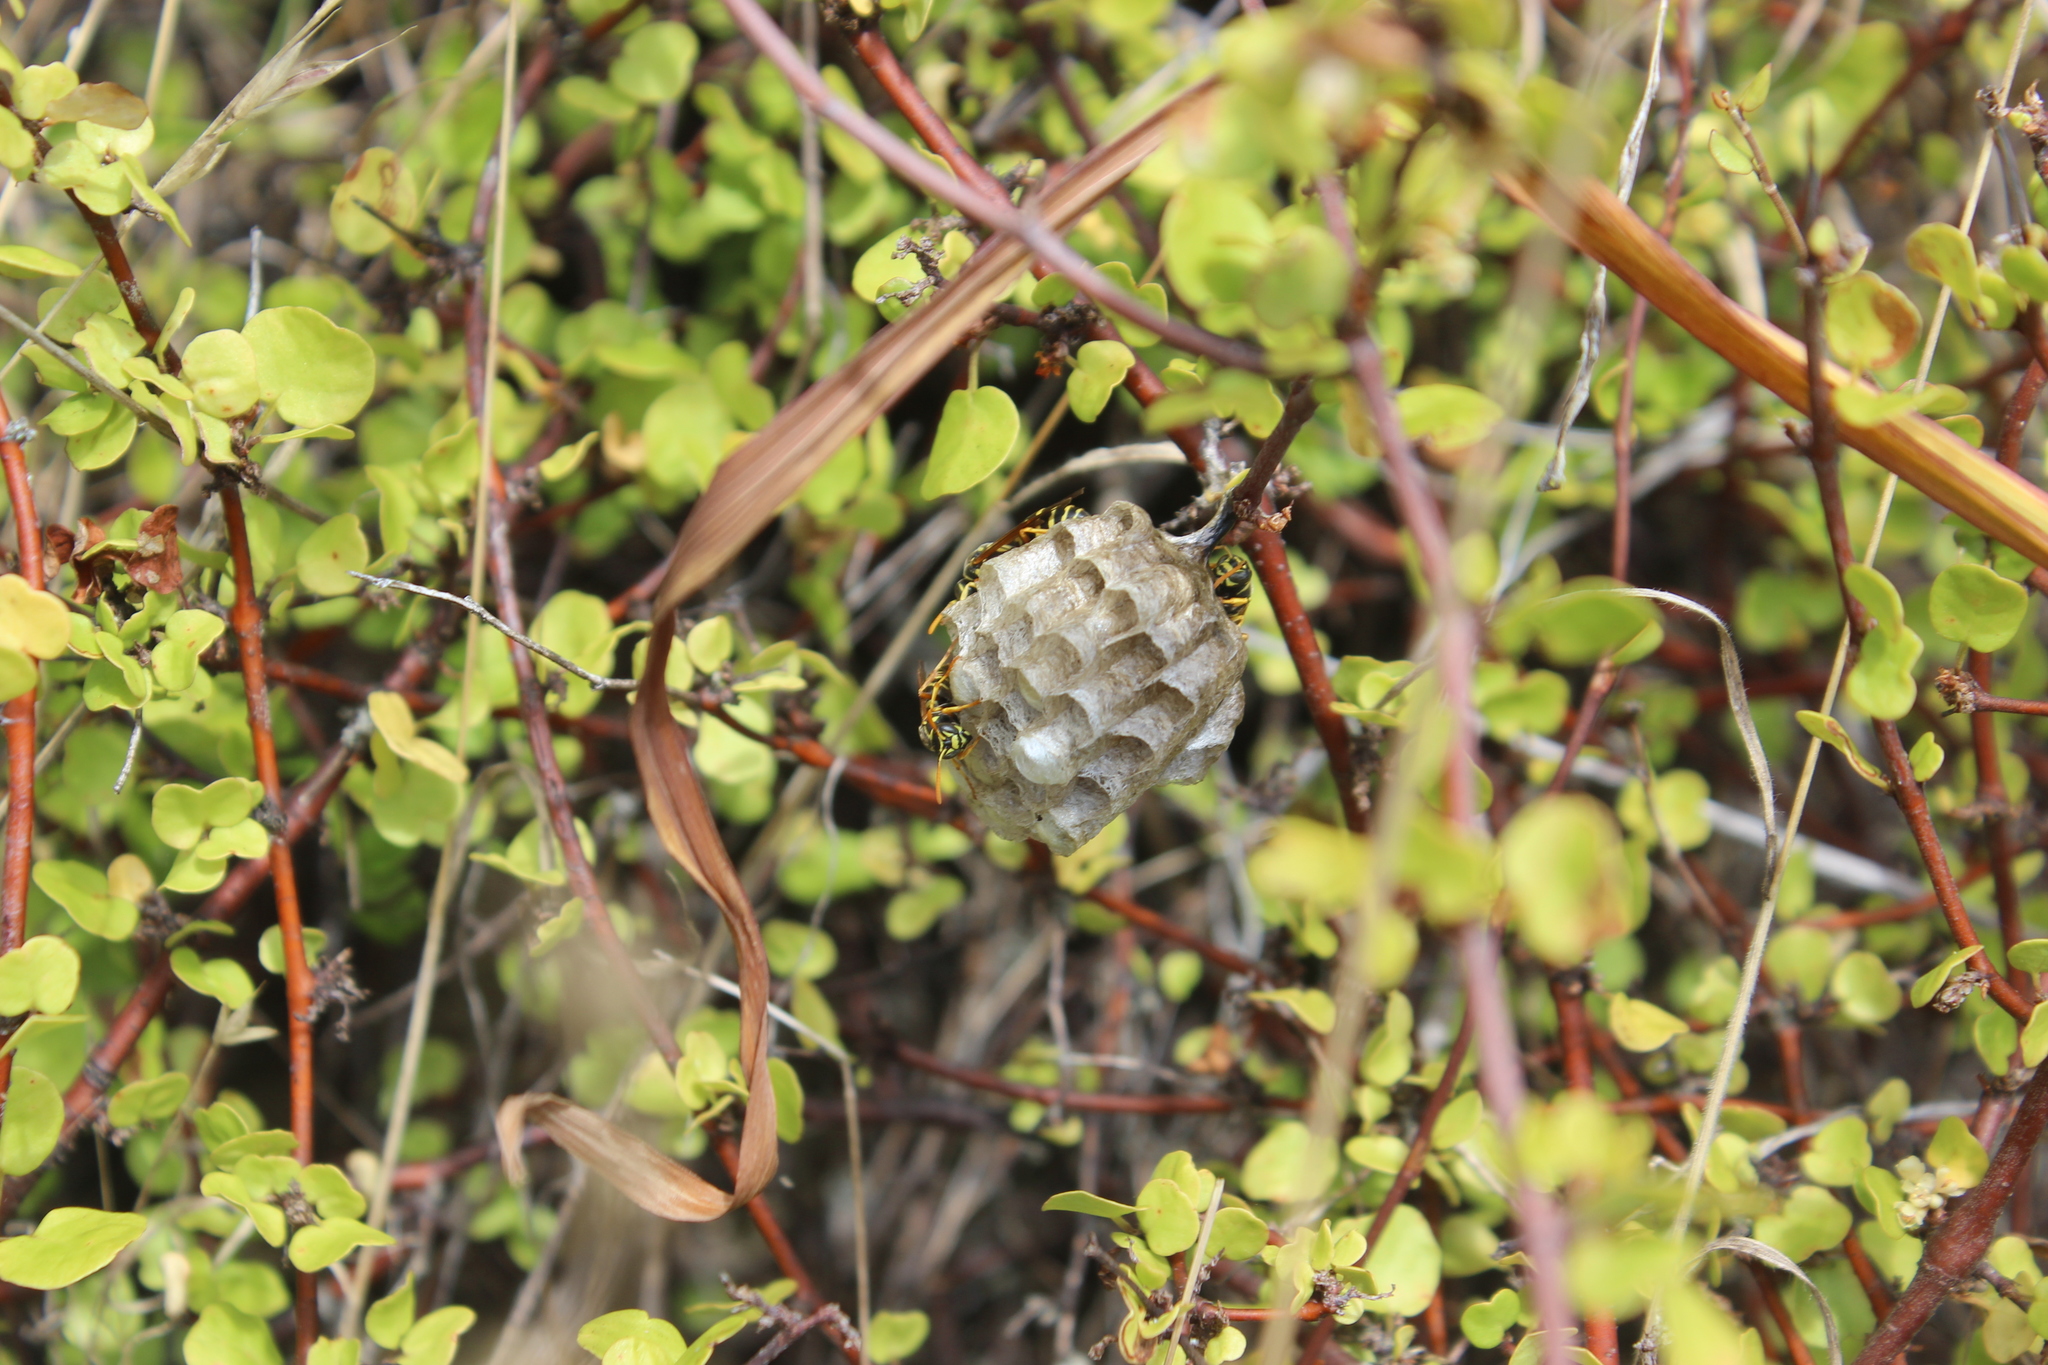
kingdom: Animalia
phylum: Arthropoda
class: Insecta
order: Hymenoptera
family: Eumenidae
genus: Polistes
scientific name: Polistes chinensis
